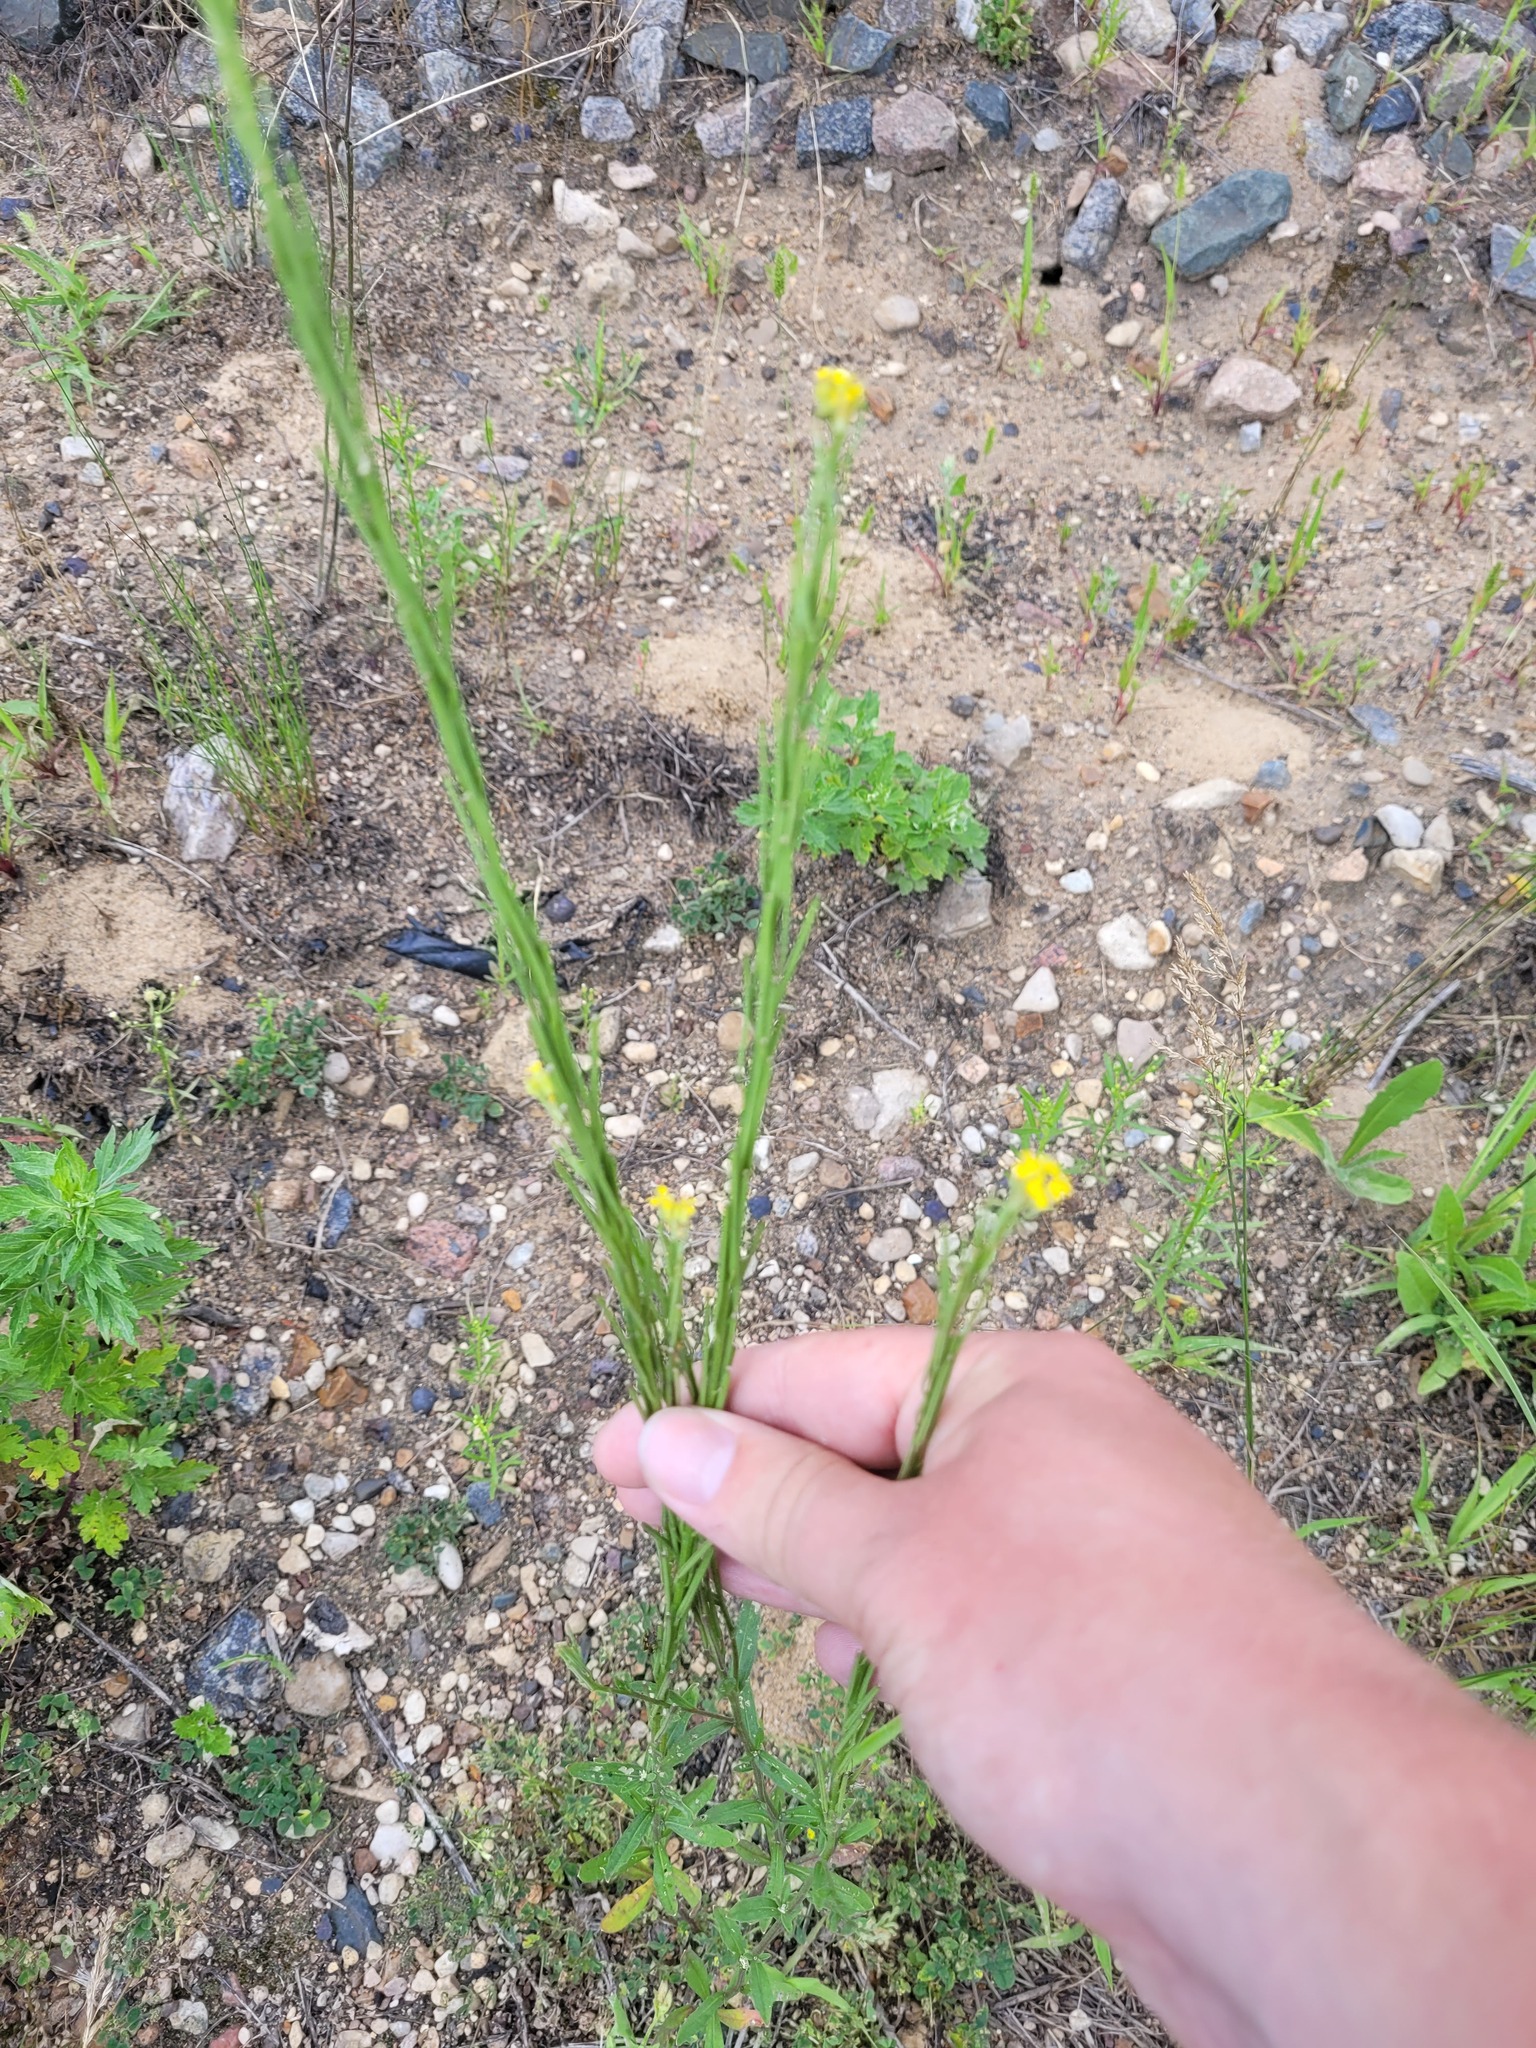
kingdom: Plantae
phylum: Tracheophyta
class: Magnoliopsida
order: Brassicales
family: Brassicaceae
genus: Erysimum
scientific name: Erysimum hieraciifolium
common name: European wallflower
